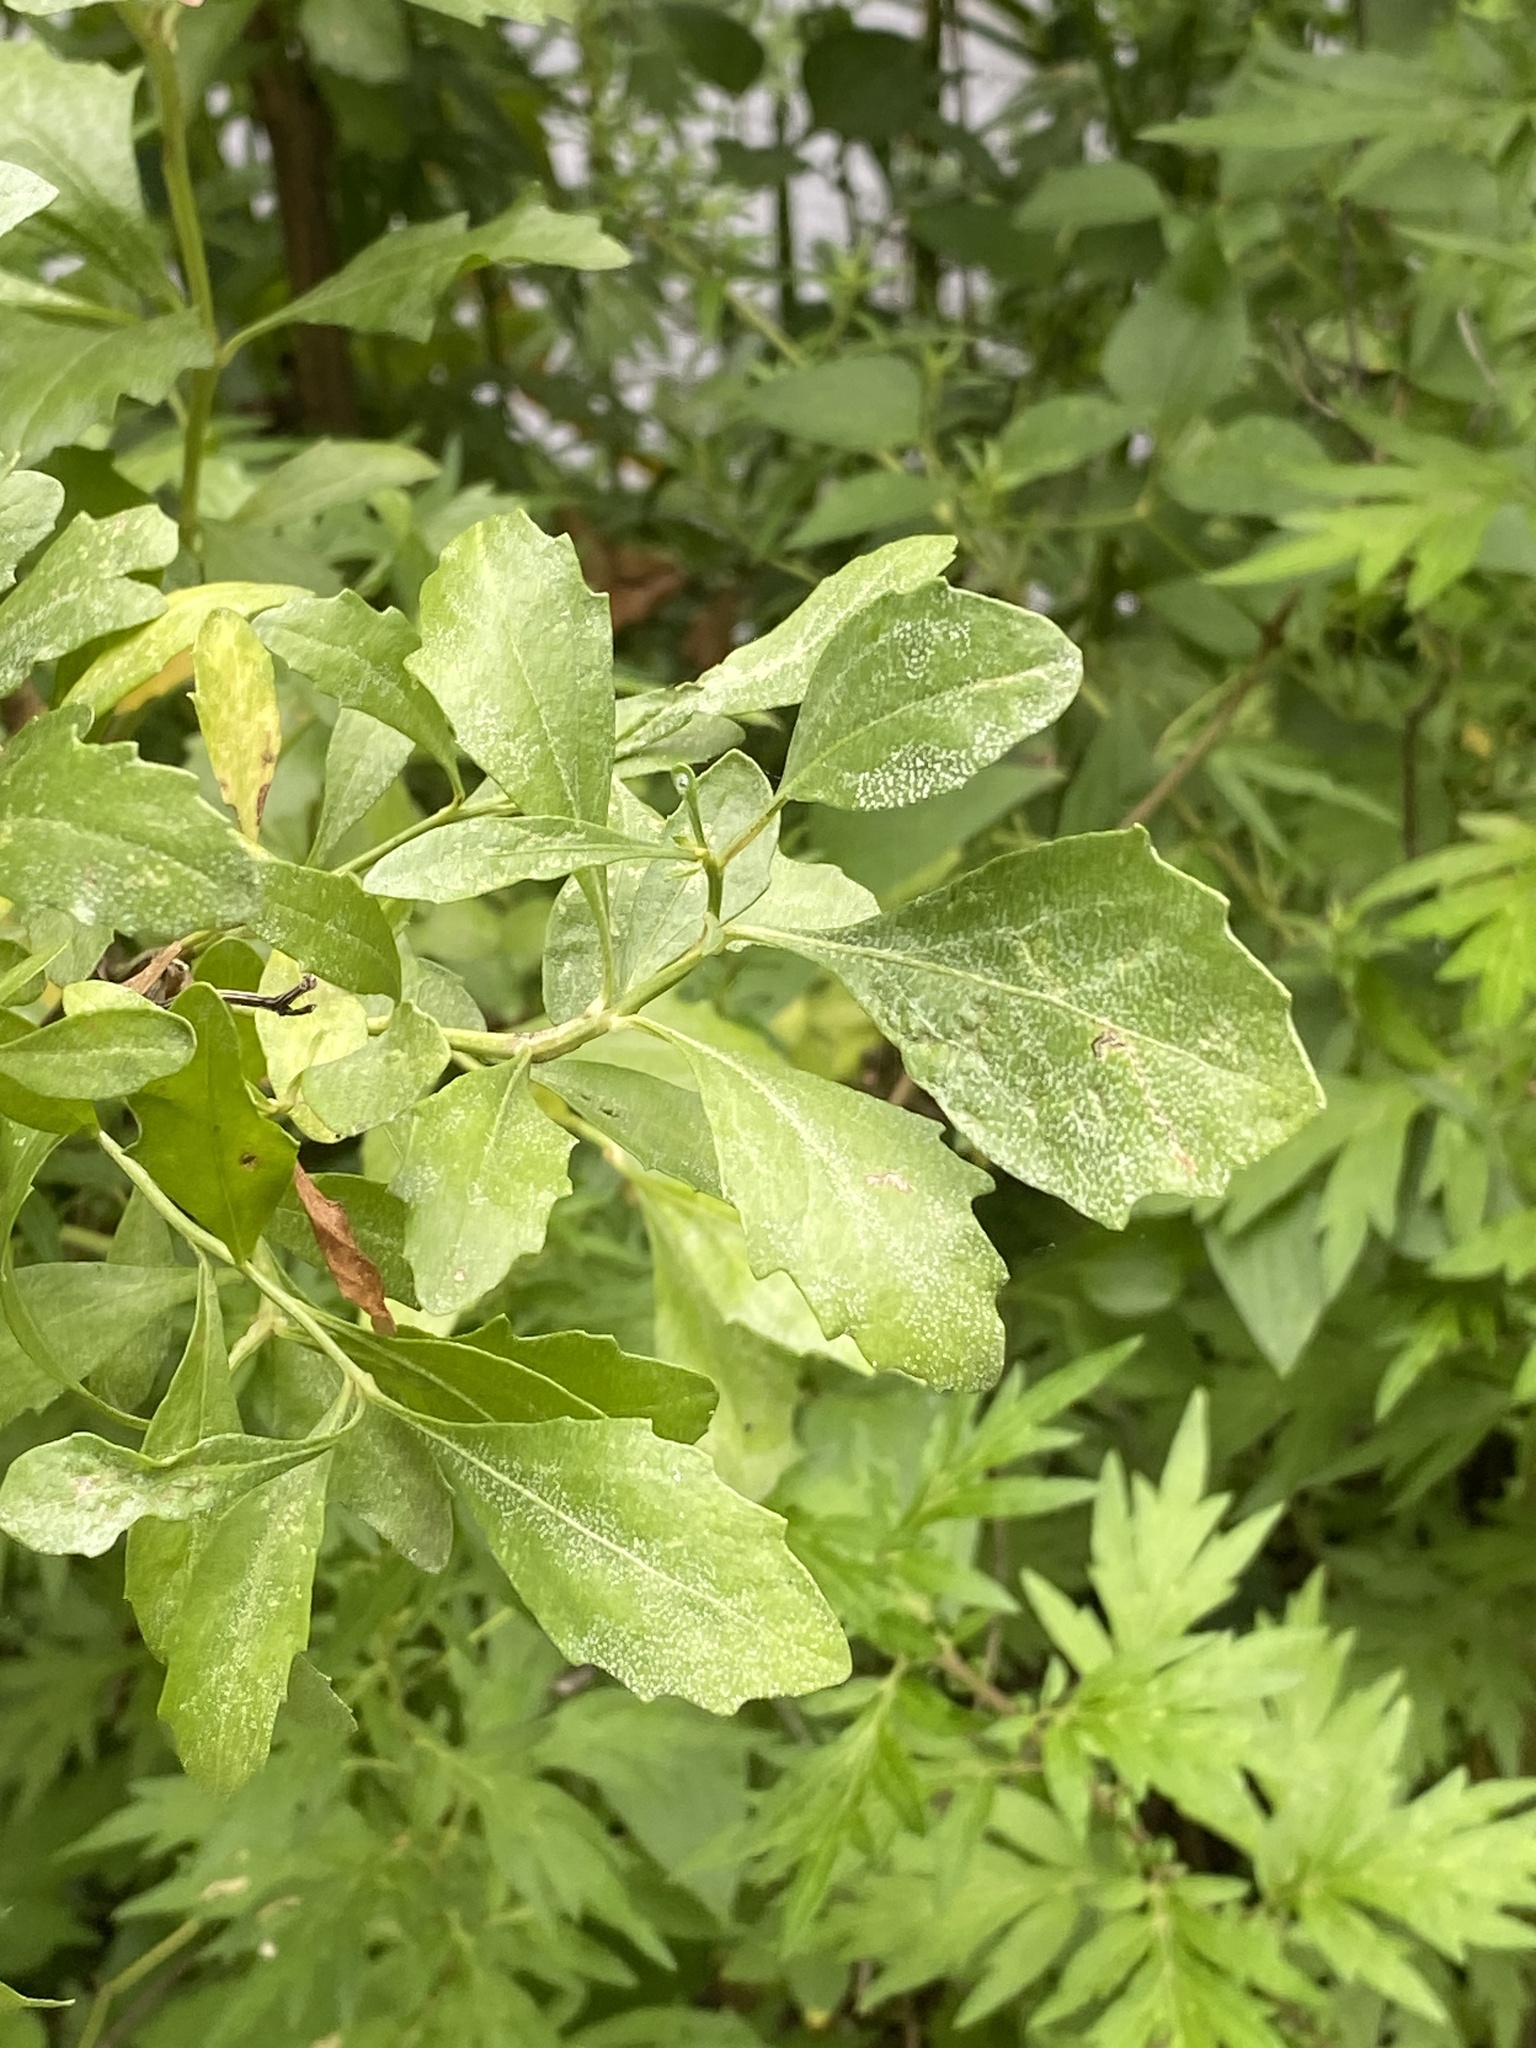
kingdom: Plantae
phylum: Tracheophyta
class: Magnoliopsida
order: Asterales
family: Asteraceae
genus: Baccharis
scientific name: Baccharis halimifolia
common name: Eastern baccharis
